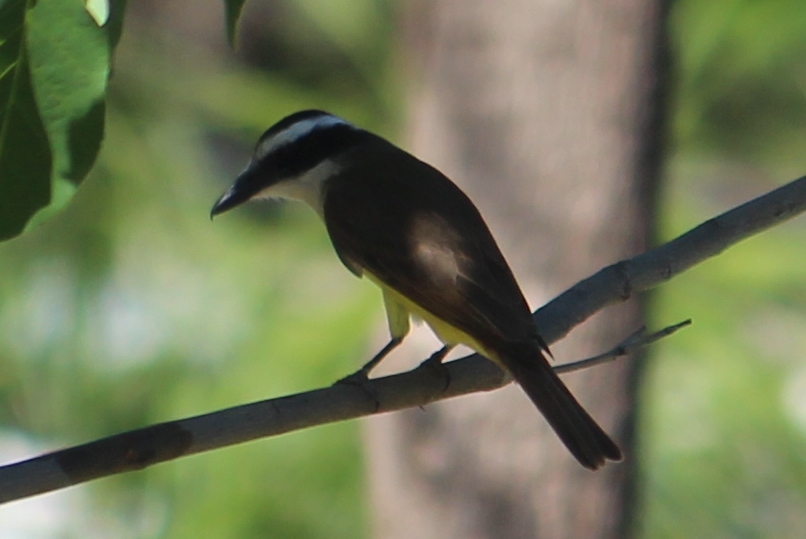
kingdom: Animalia
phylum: Chordata
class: Aves
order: Passeriformes
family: Tyrannidae
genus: Pitangus
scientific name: Pitangus sulphuratus
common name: Great kiskadee
